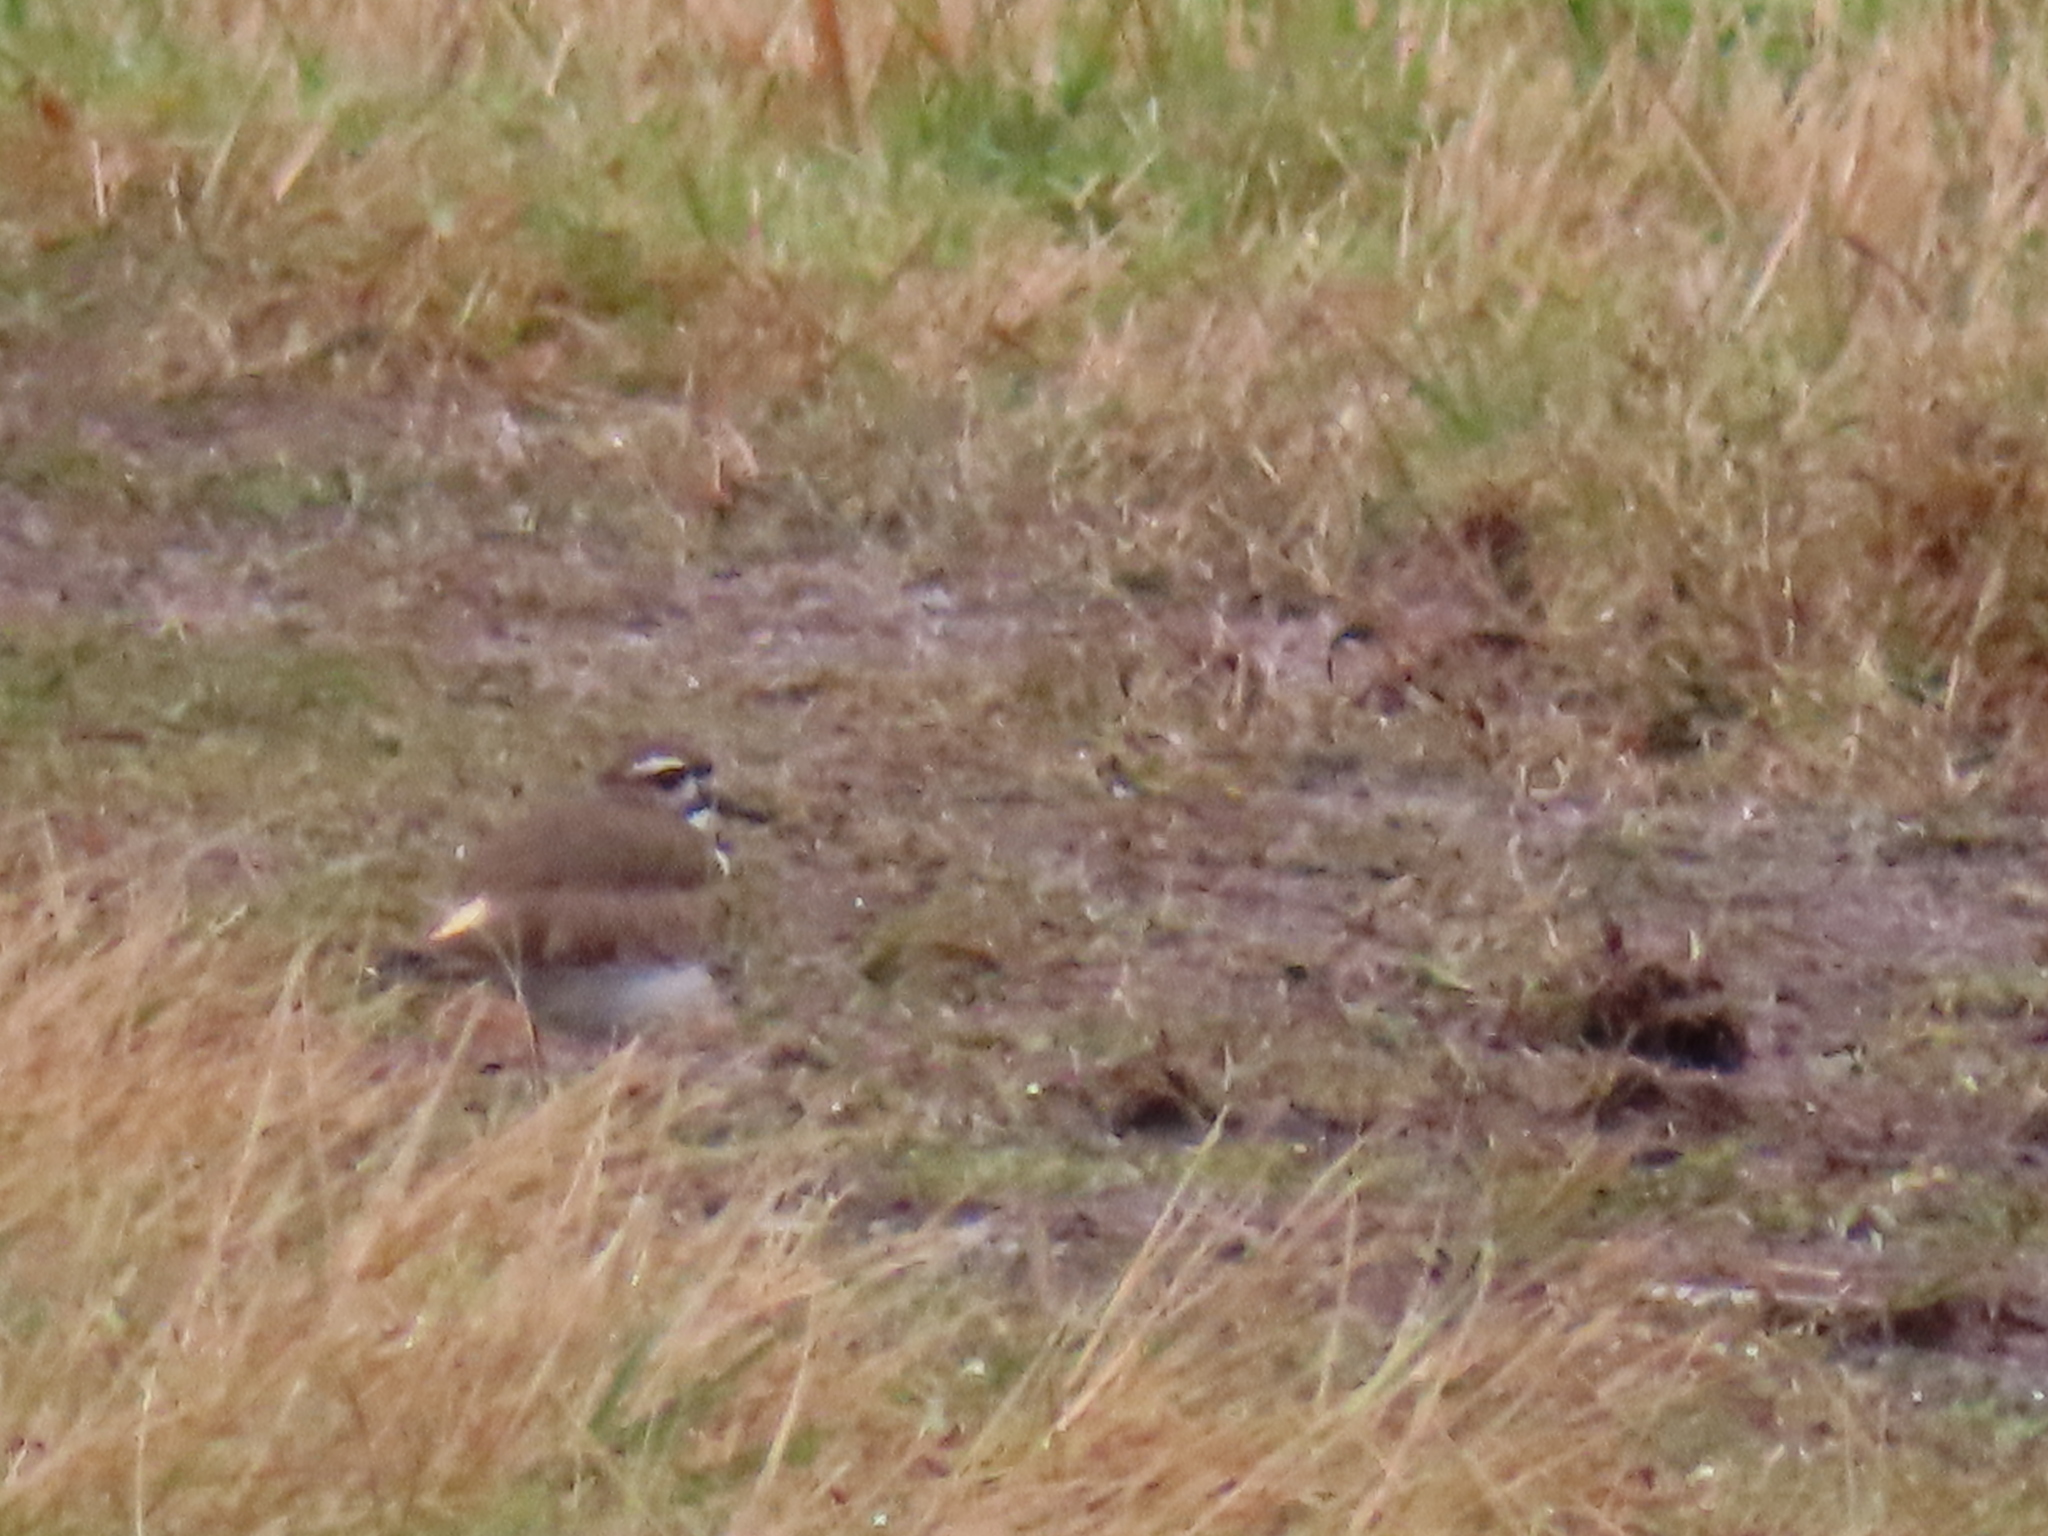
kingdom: Animalia
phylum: Chordata
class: Aves
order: Charadriiformes
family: Charadriidae
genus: Charadrius
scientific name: Charadrius vociferus
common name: Killdeer
